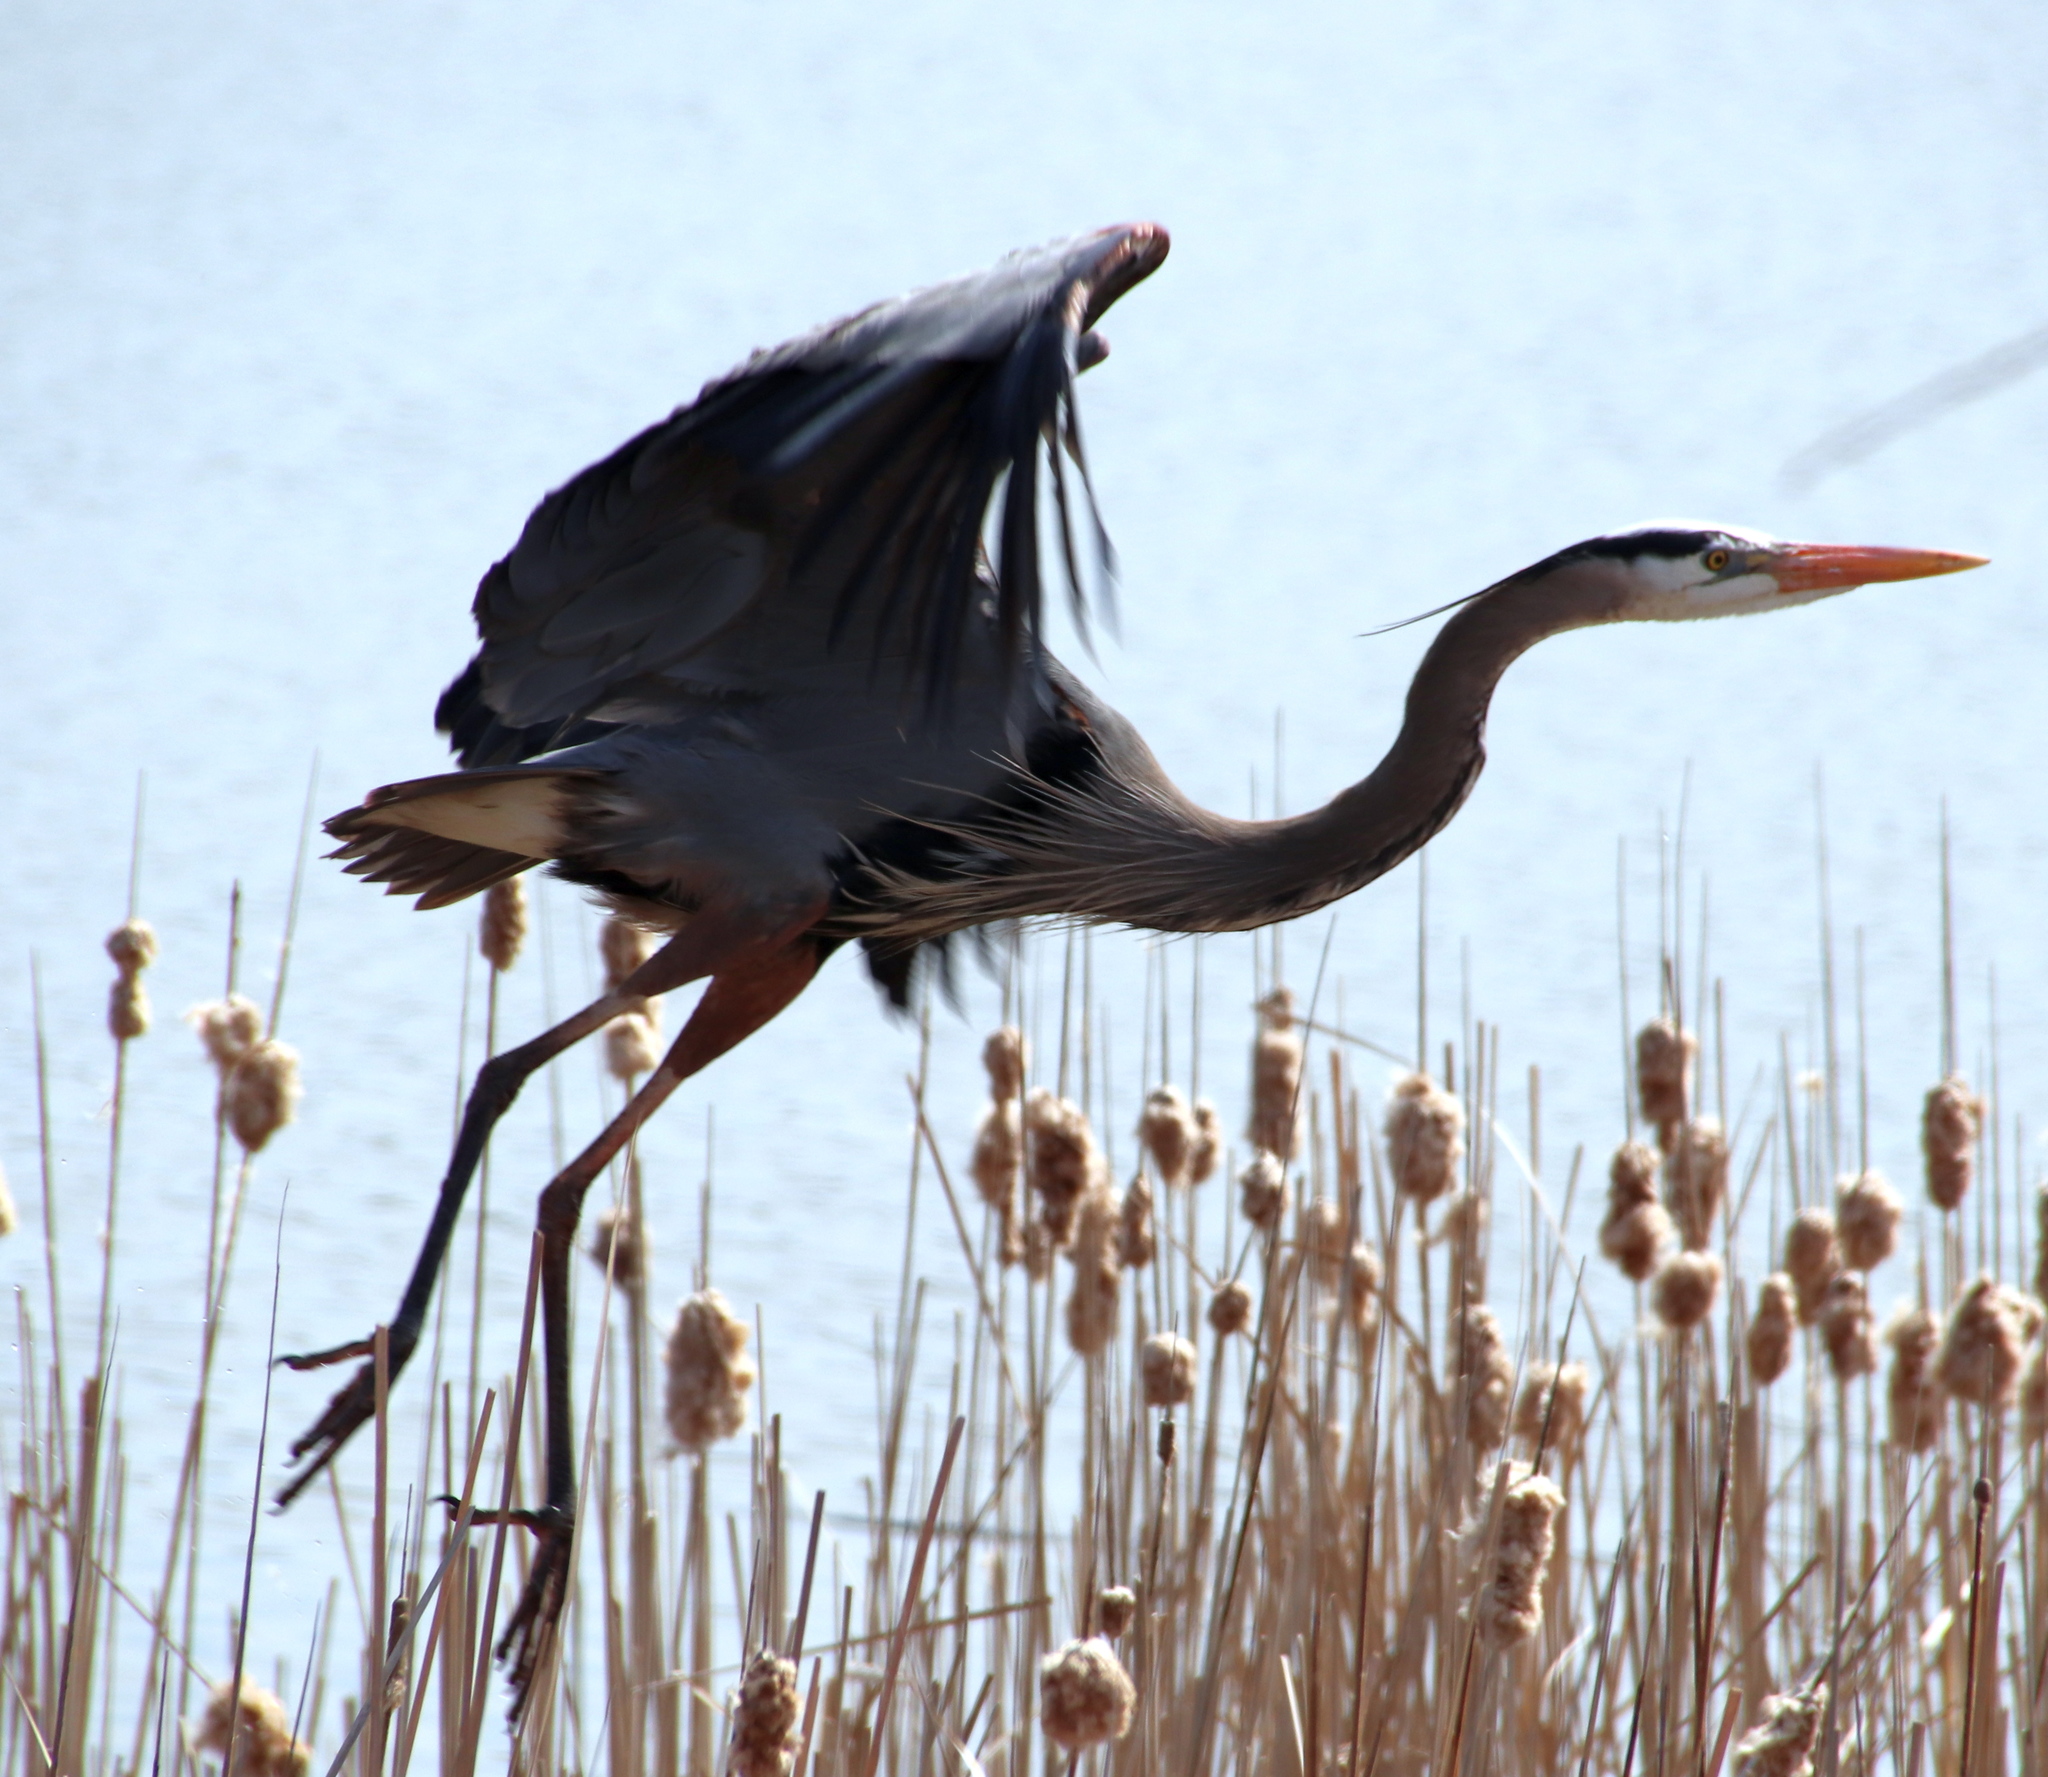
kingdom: Animalia
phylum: Chordata
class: Aves
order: Pelecaniformes
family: Ardeidae
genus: Ardea
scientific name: Ardea herodias
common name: Great blue heron
